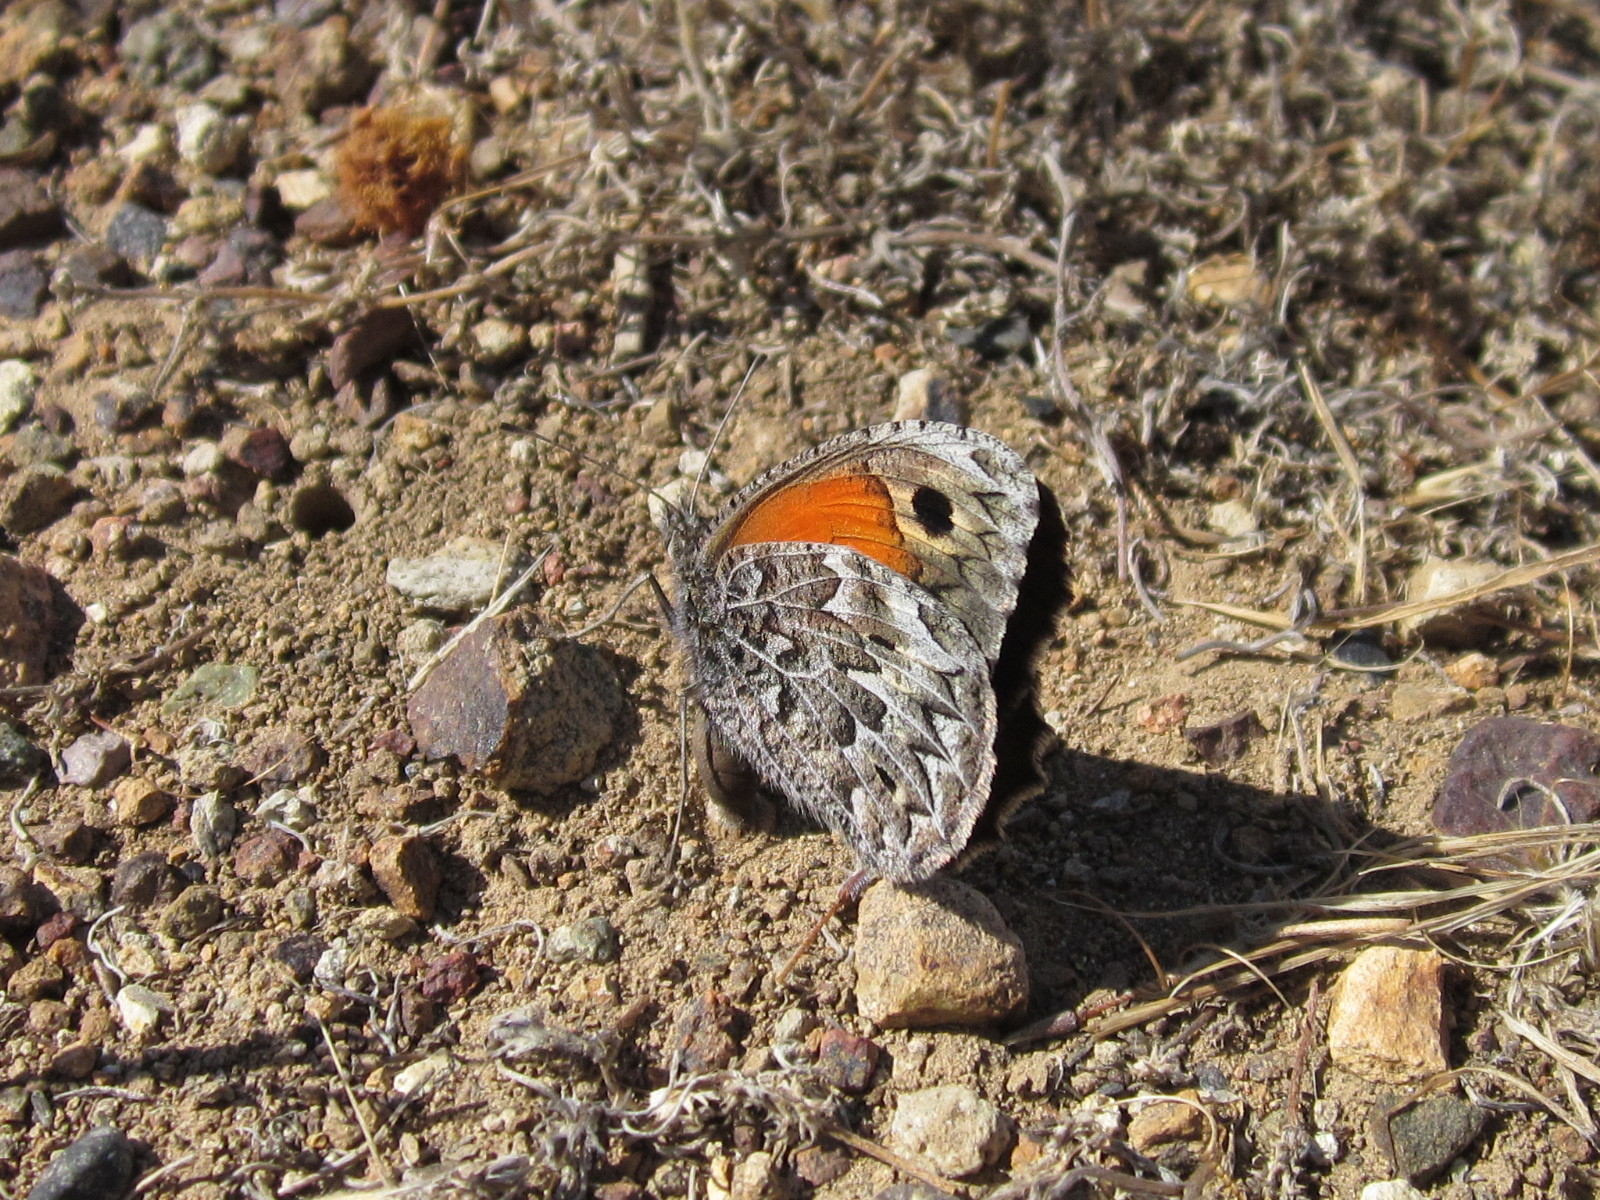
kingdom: Animalia
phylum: Arthropoda
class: Insecta
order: Lepidoptera
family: Nymphalidae
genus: Argyrophorus
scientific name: Argyrophorus
